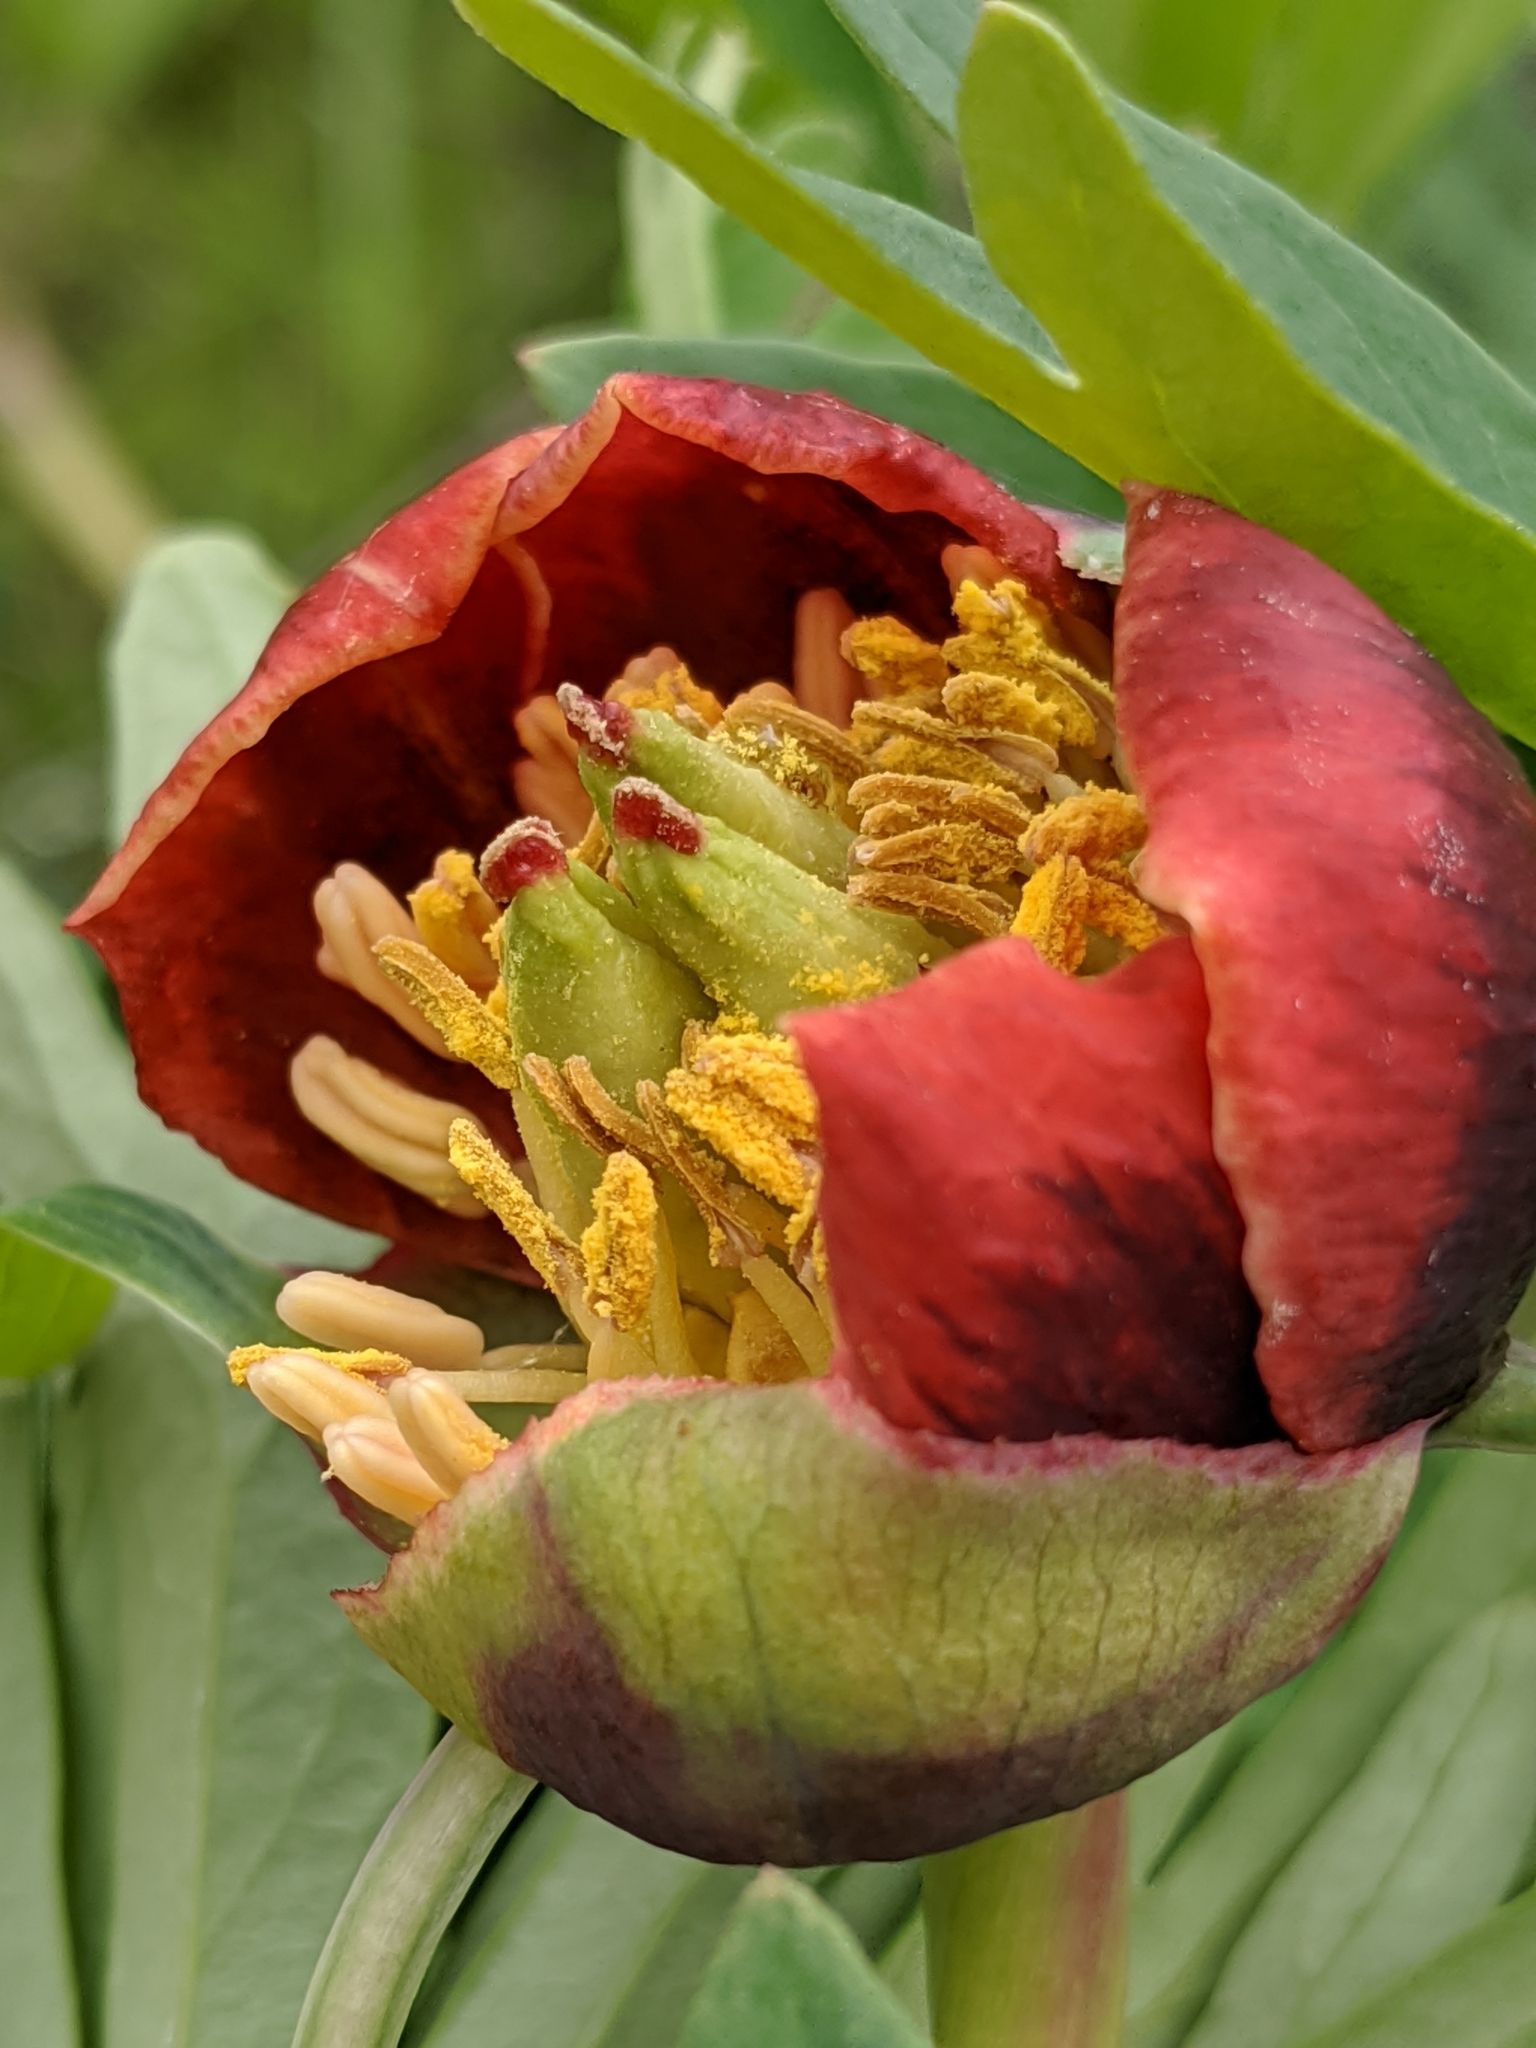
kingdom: Plantae
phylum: Tracheophyta
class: Magnoliopsida
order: Saxifragales
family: Paeoniaceae
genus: Paeonia
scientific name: Paeonia californica
